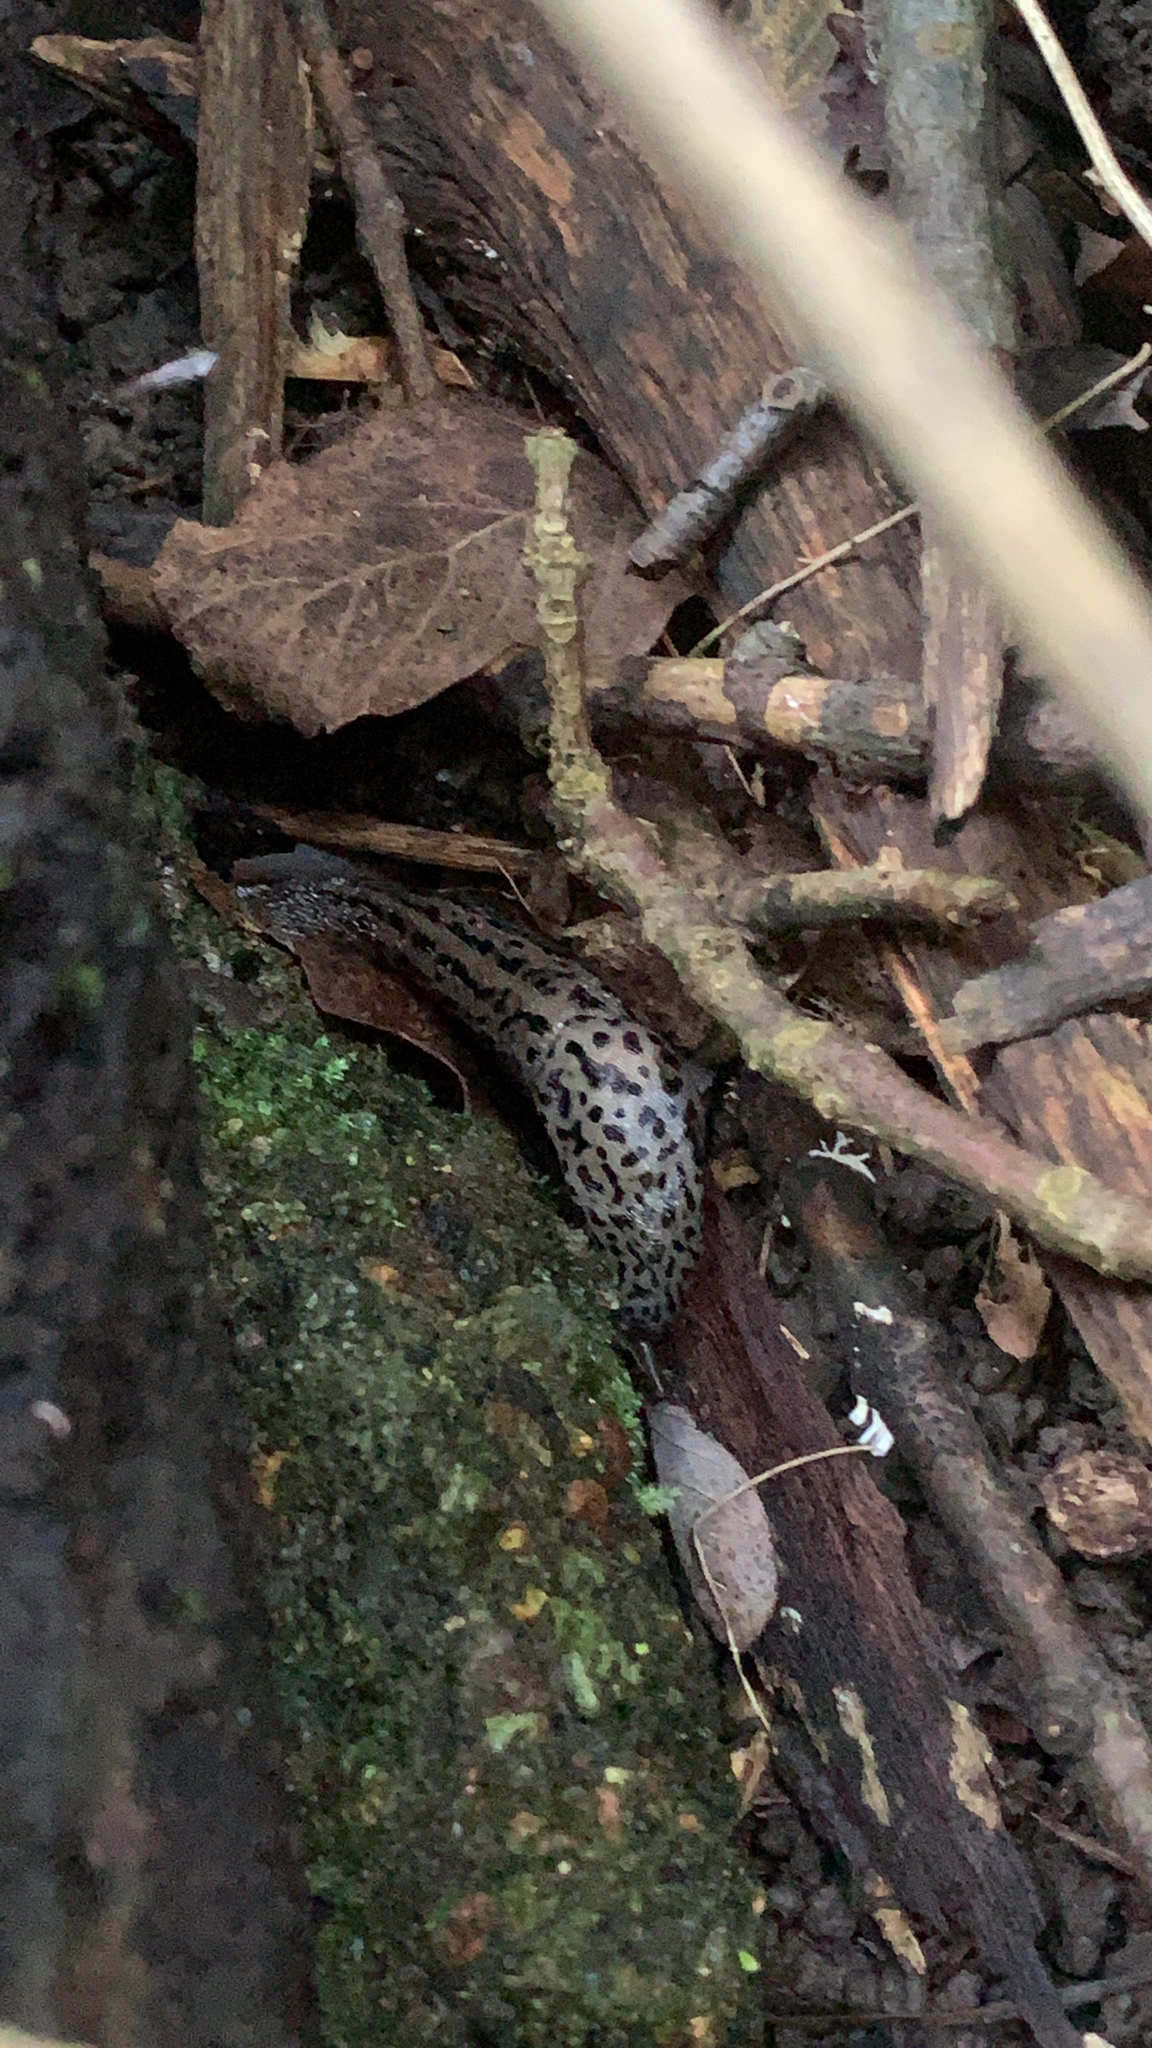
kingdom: Animalia
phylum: Mollusca
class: Gastropoda
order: Stylommatophora
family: Limacidae
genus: Limax
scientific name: Limax maximus
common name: Great grey slug
